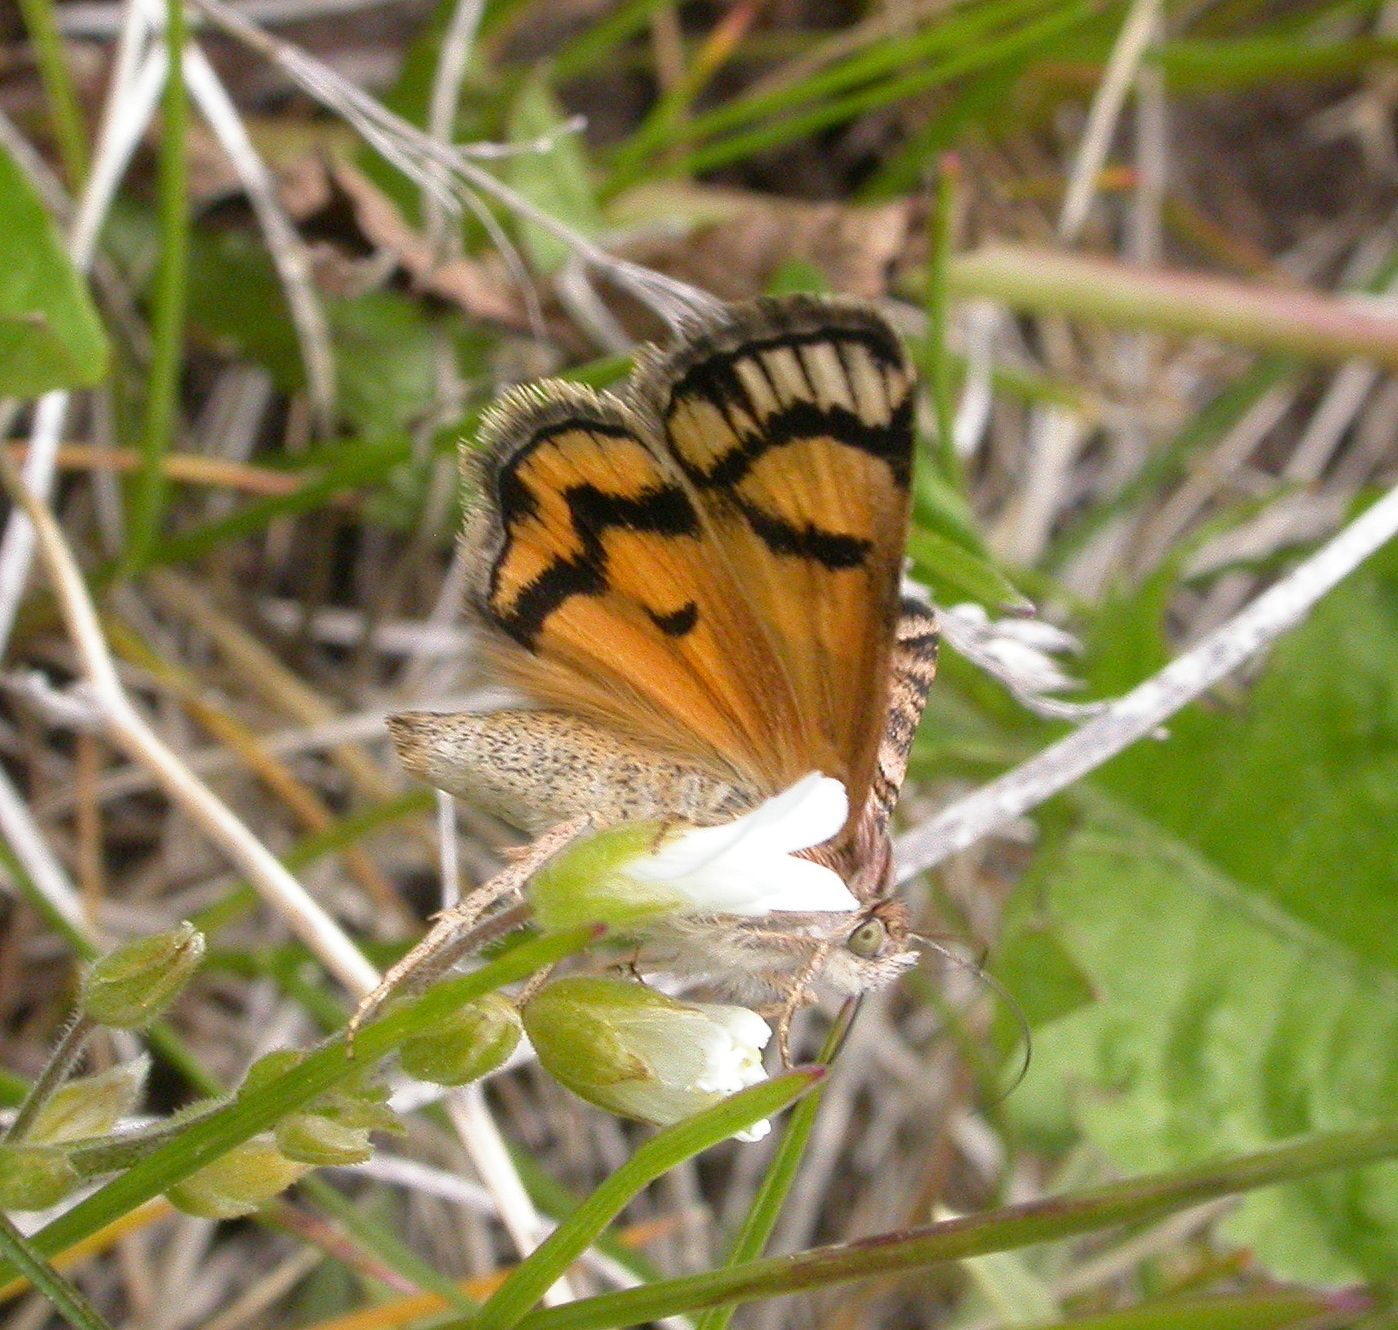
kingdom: Animalia
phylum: Arthropoda
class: Insecta
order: Lepidoptera
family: Erebidae
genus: Drasteria
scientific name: Drasteria petricola
